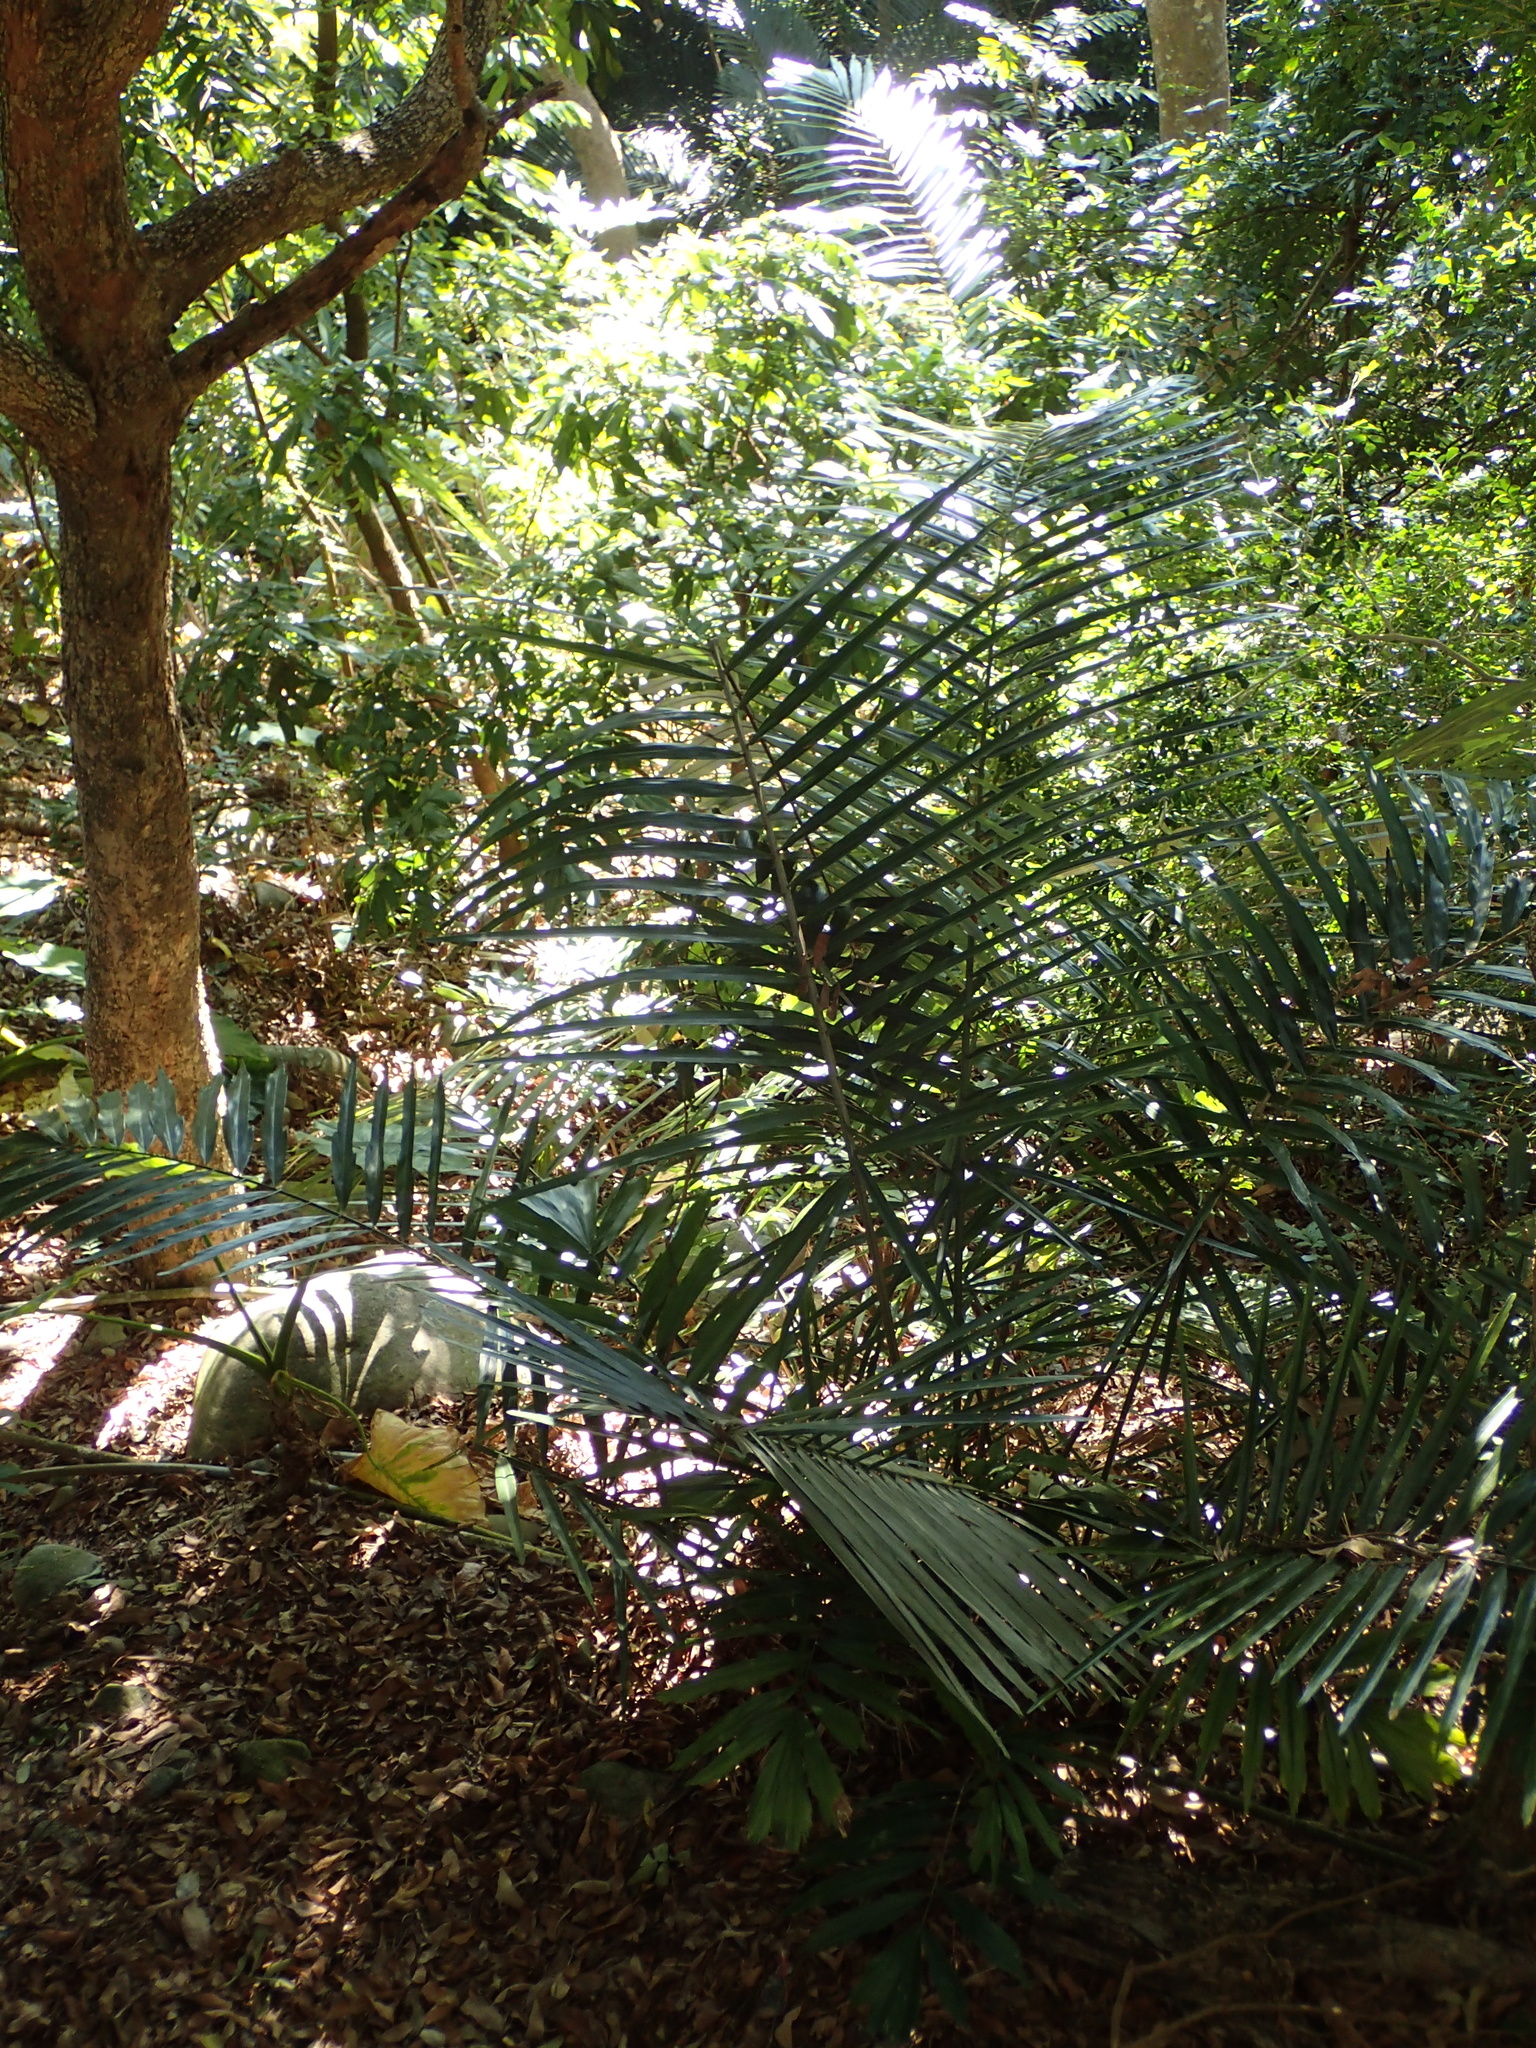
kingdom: Plantae
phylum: Tracheophyta
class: Liliopsida
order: Arecales
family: Arecaceae
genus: Arenga
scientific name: Arenga engleri
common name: Formosan sugar palm
